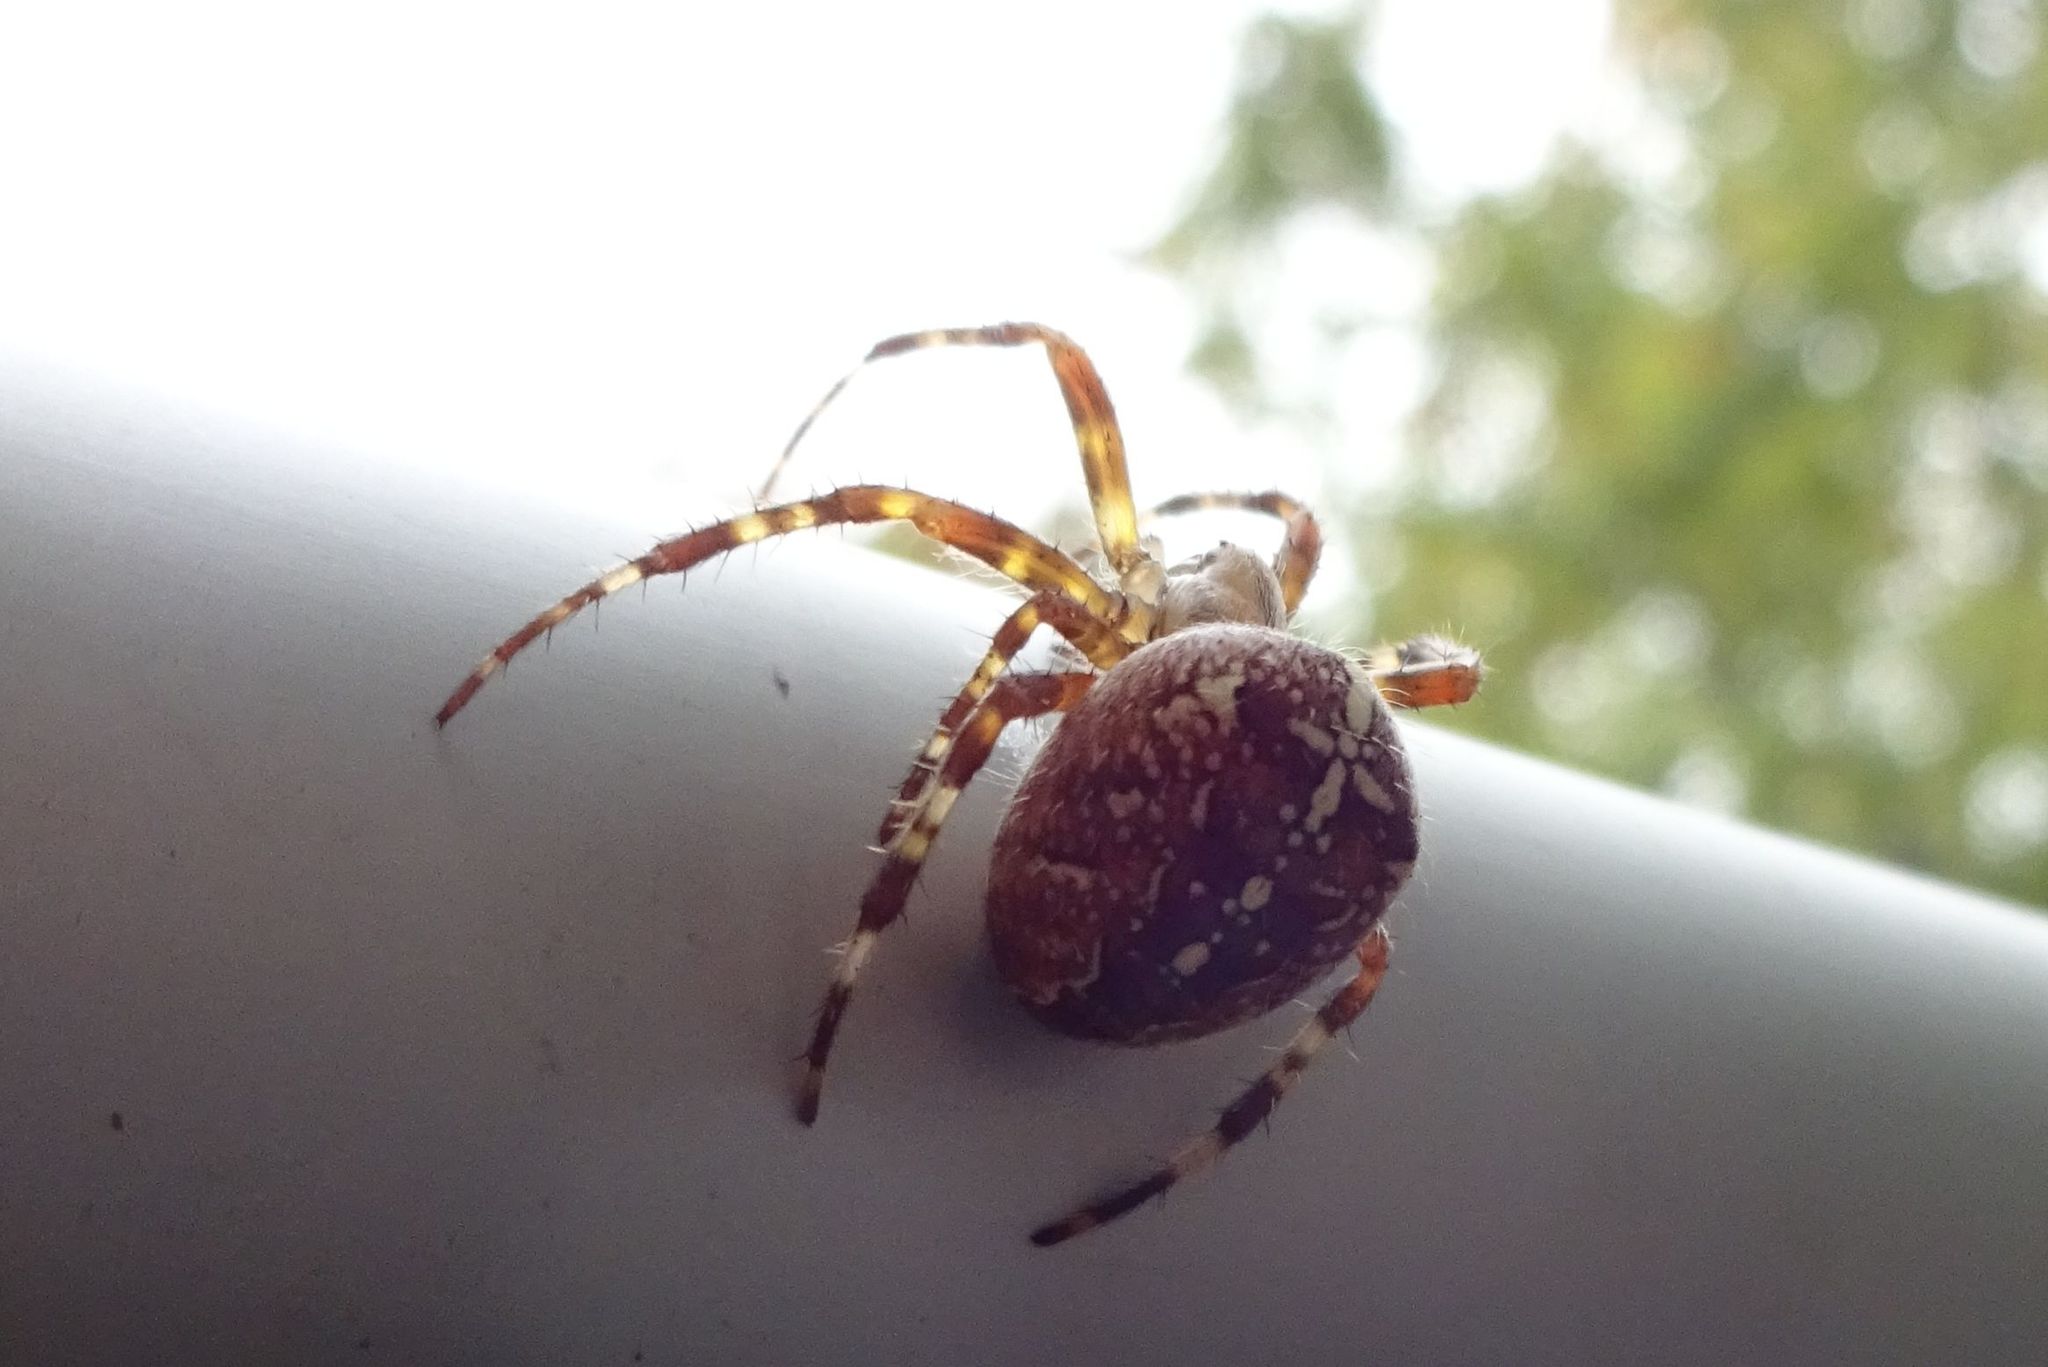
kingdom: Animalia
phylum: Arthropoda
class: Arachnida
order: Araneae
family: Araneidae
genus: Araneus
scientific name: Araneus diadematus
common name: Cross orbweaver
